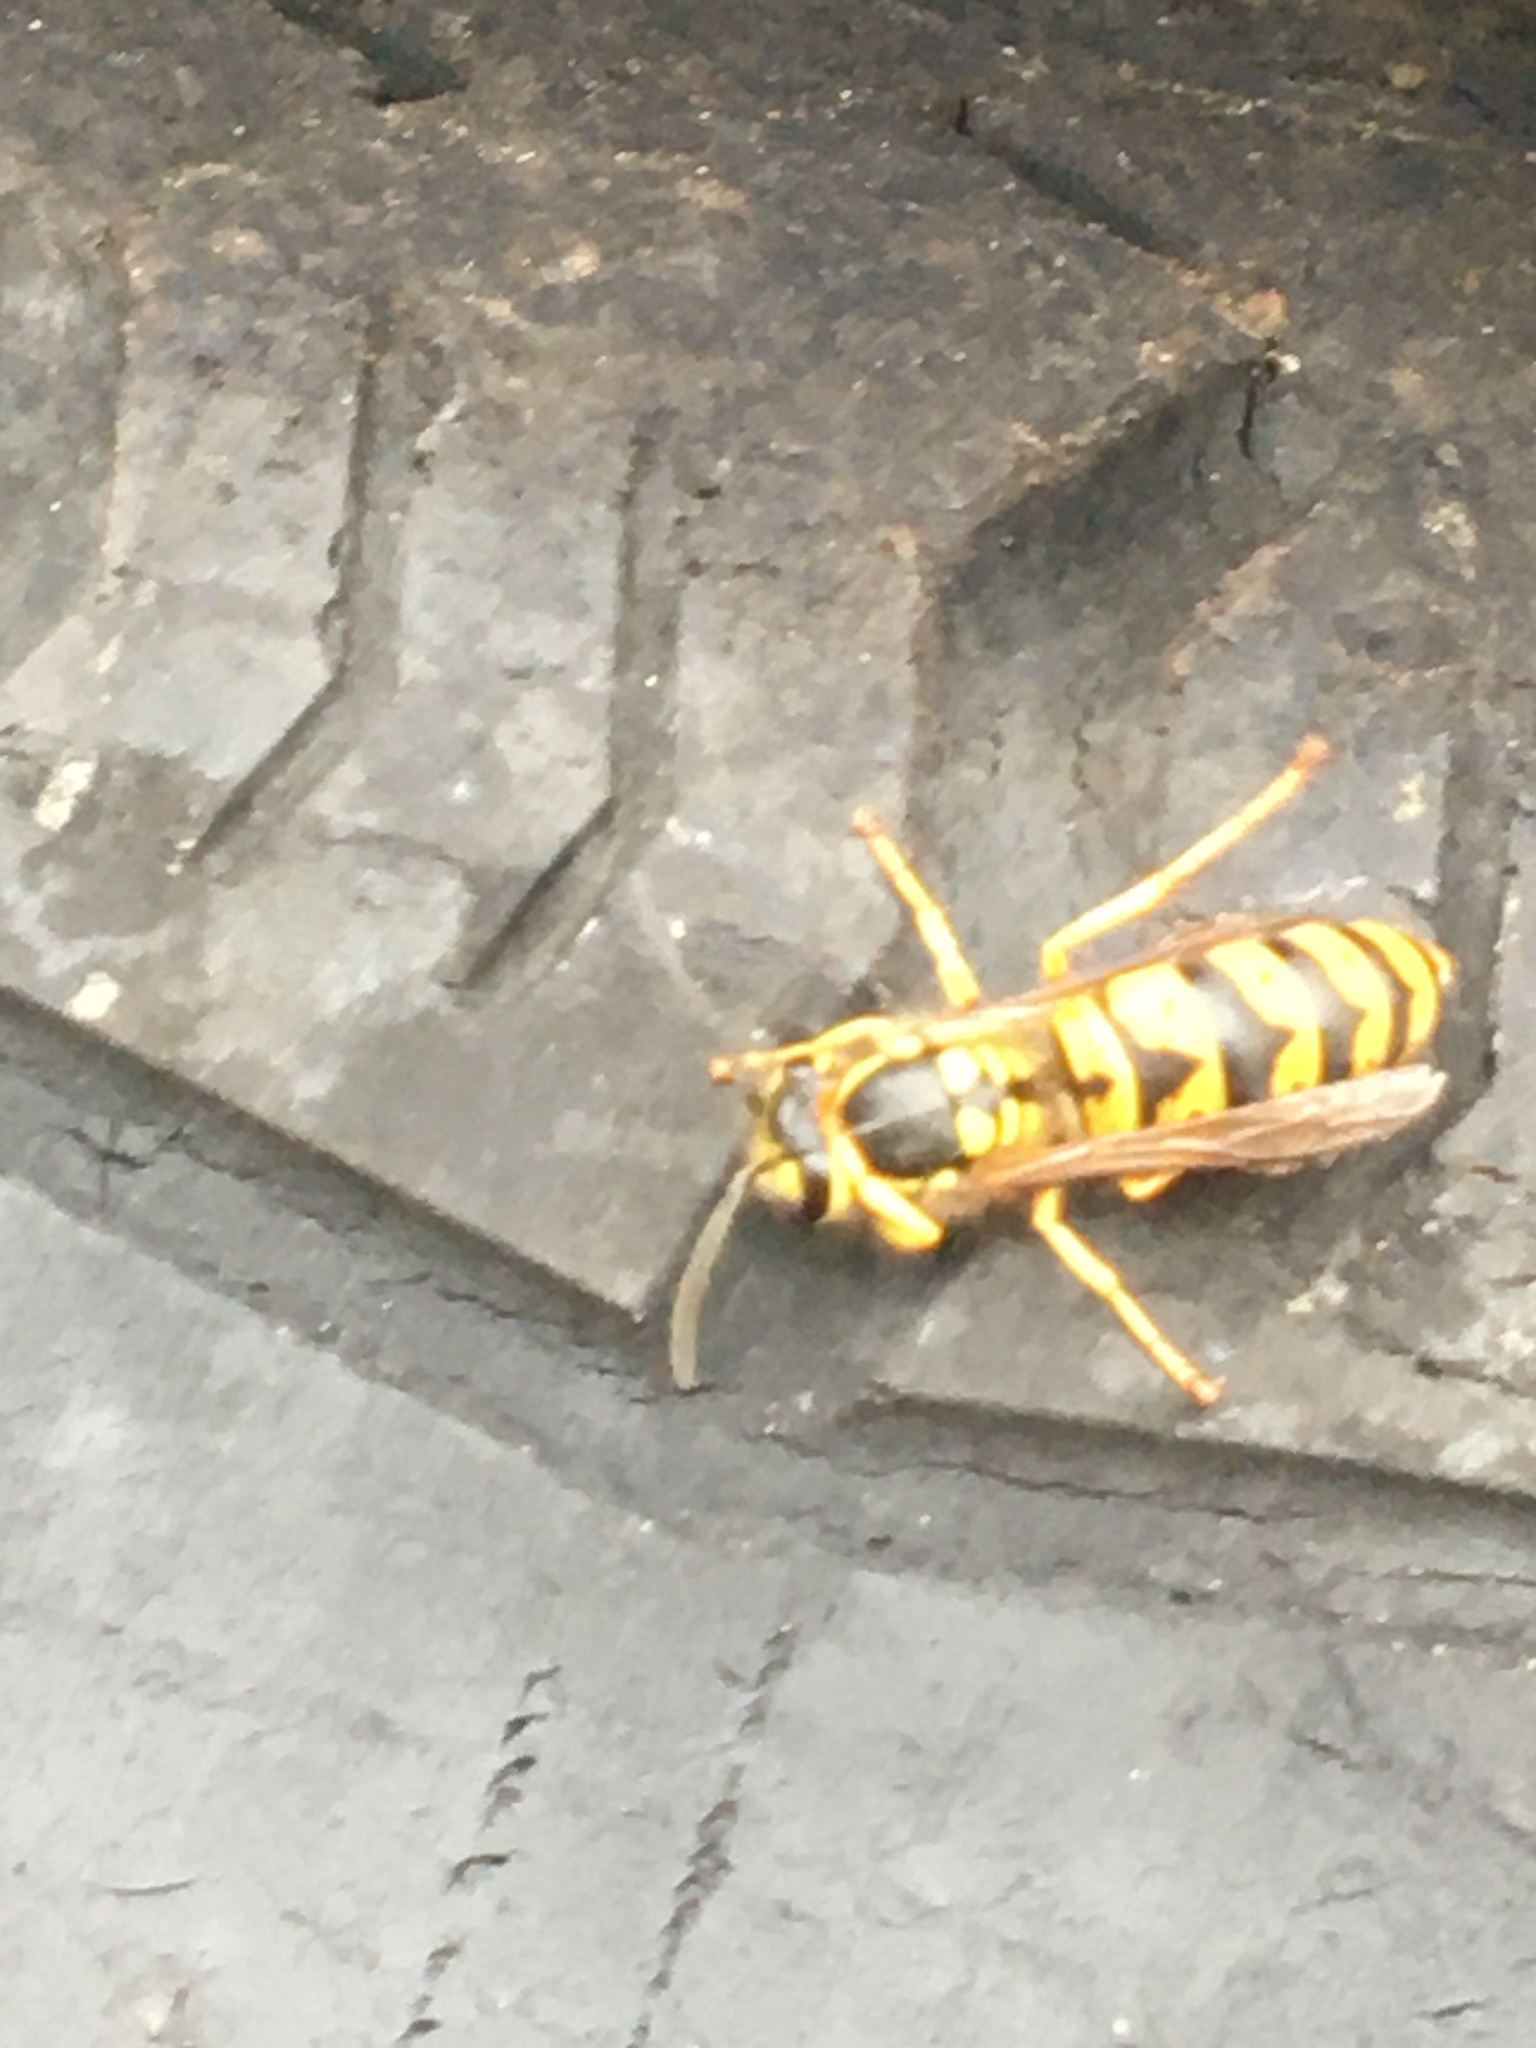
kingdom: Animalia
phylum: Arthropoda
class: Insecta
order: Hymenoptera
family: Vespidae
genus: Vespula
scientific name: Vespula germanica
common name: German wasp
